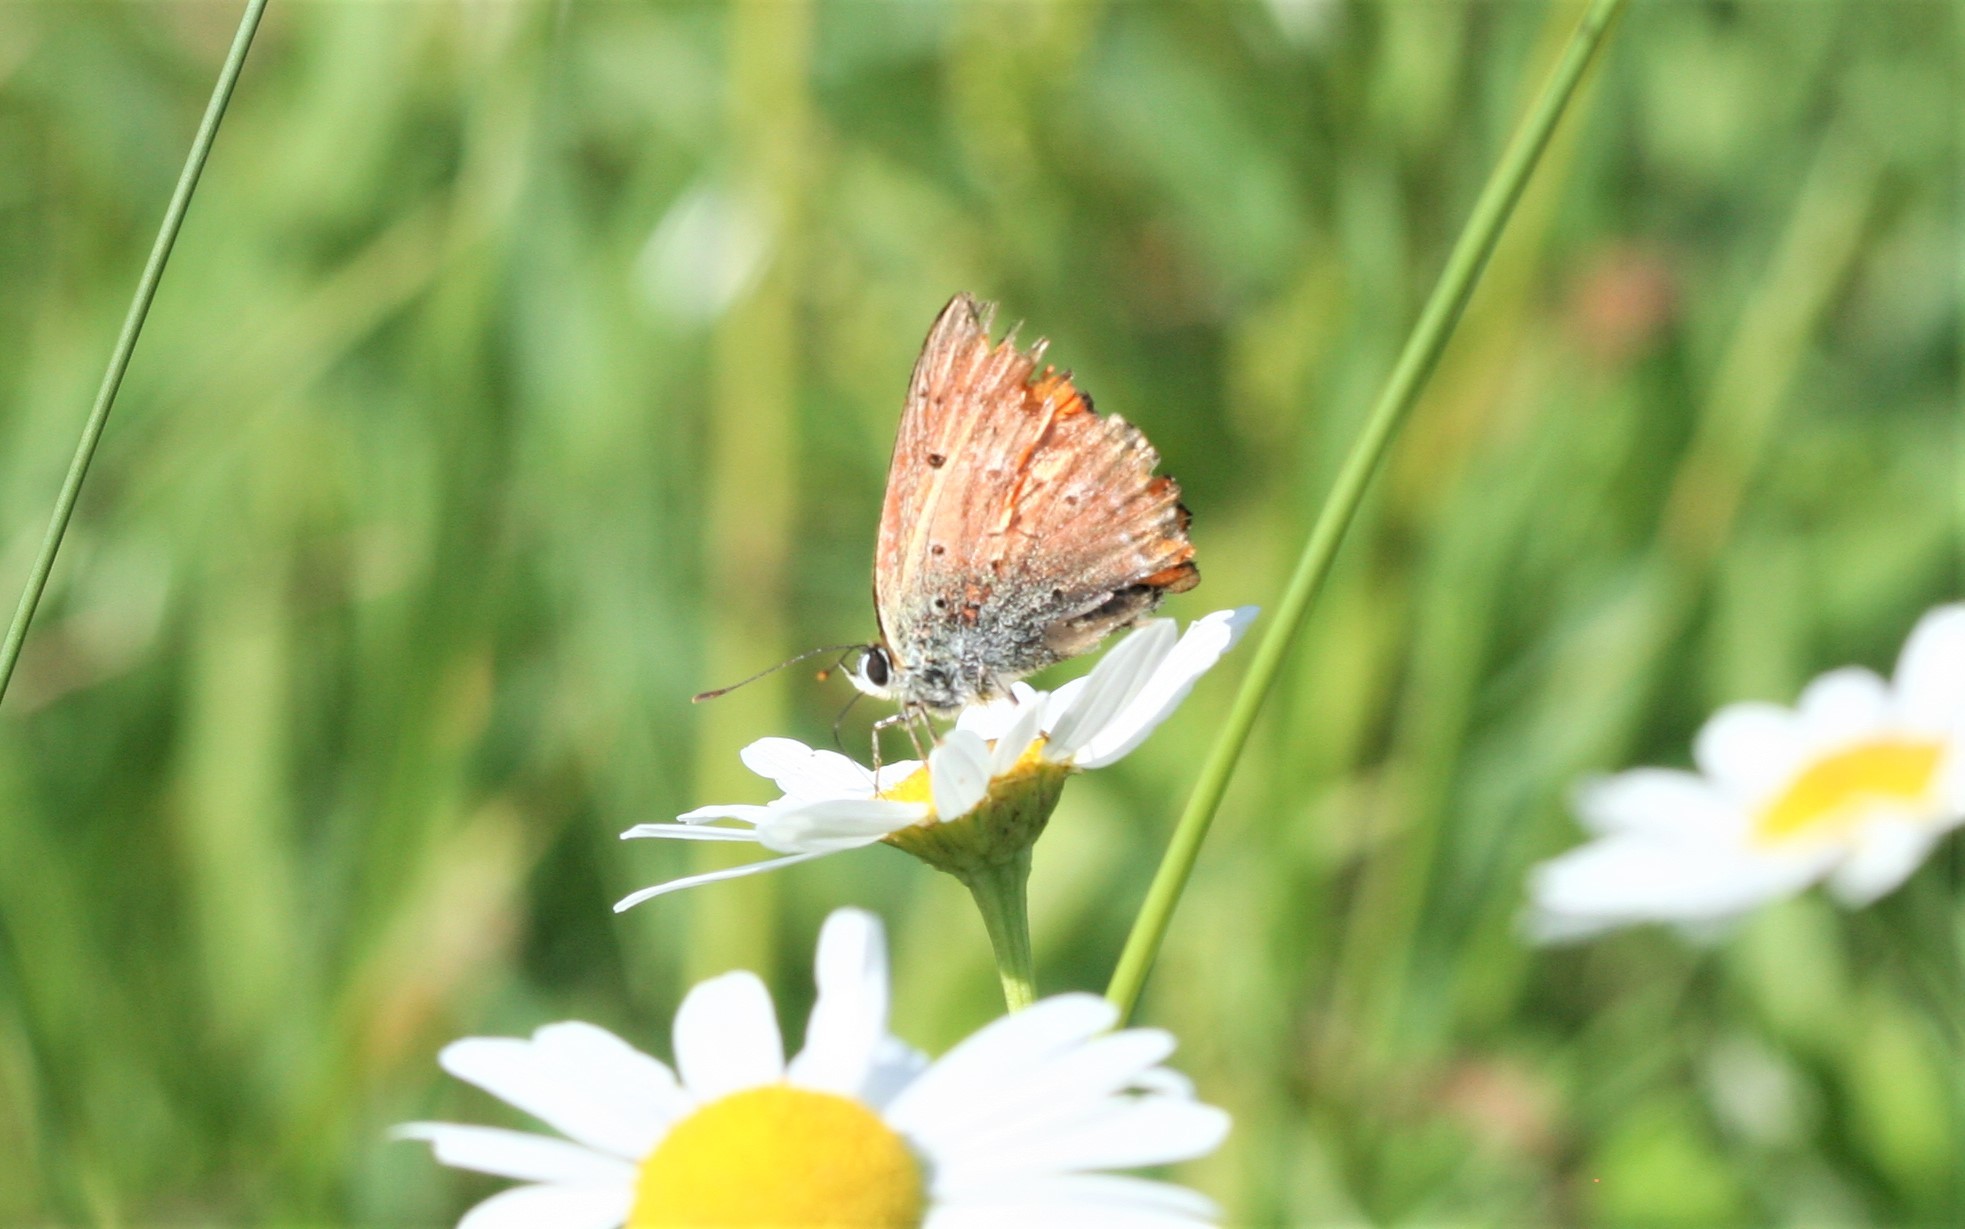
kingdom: Animalia
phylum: Arthropoda
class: Insecta
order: Lepidoptera
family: Lycaenidae
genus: Lycaena
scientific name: Lycaena virgaureae
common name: Scarce copper
